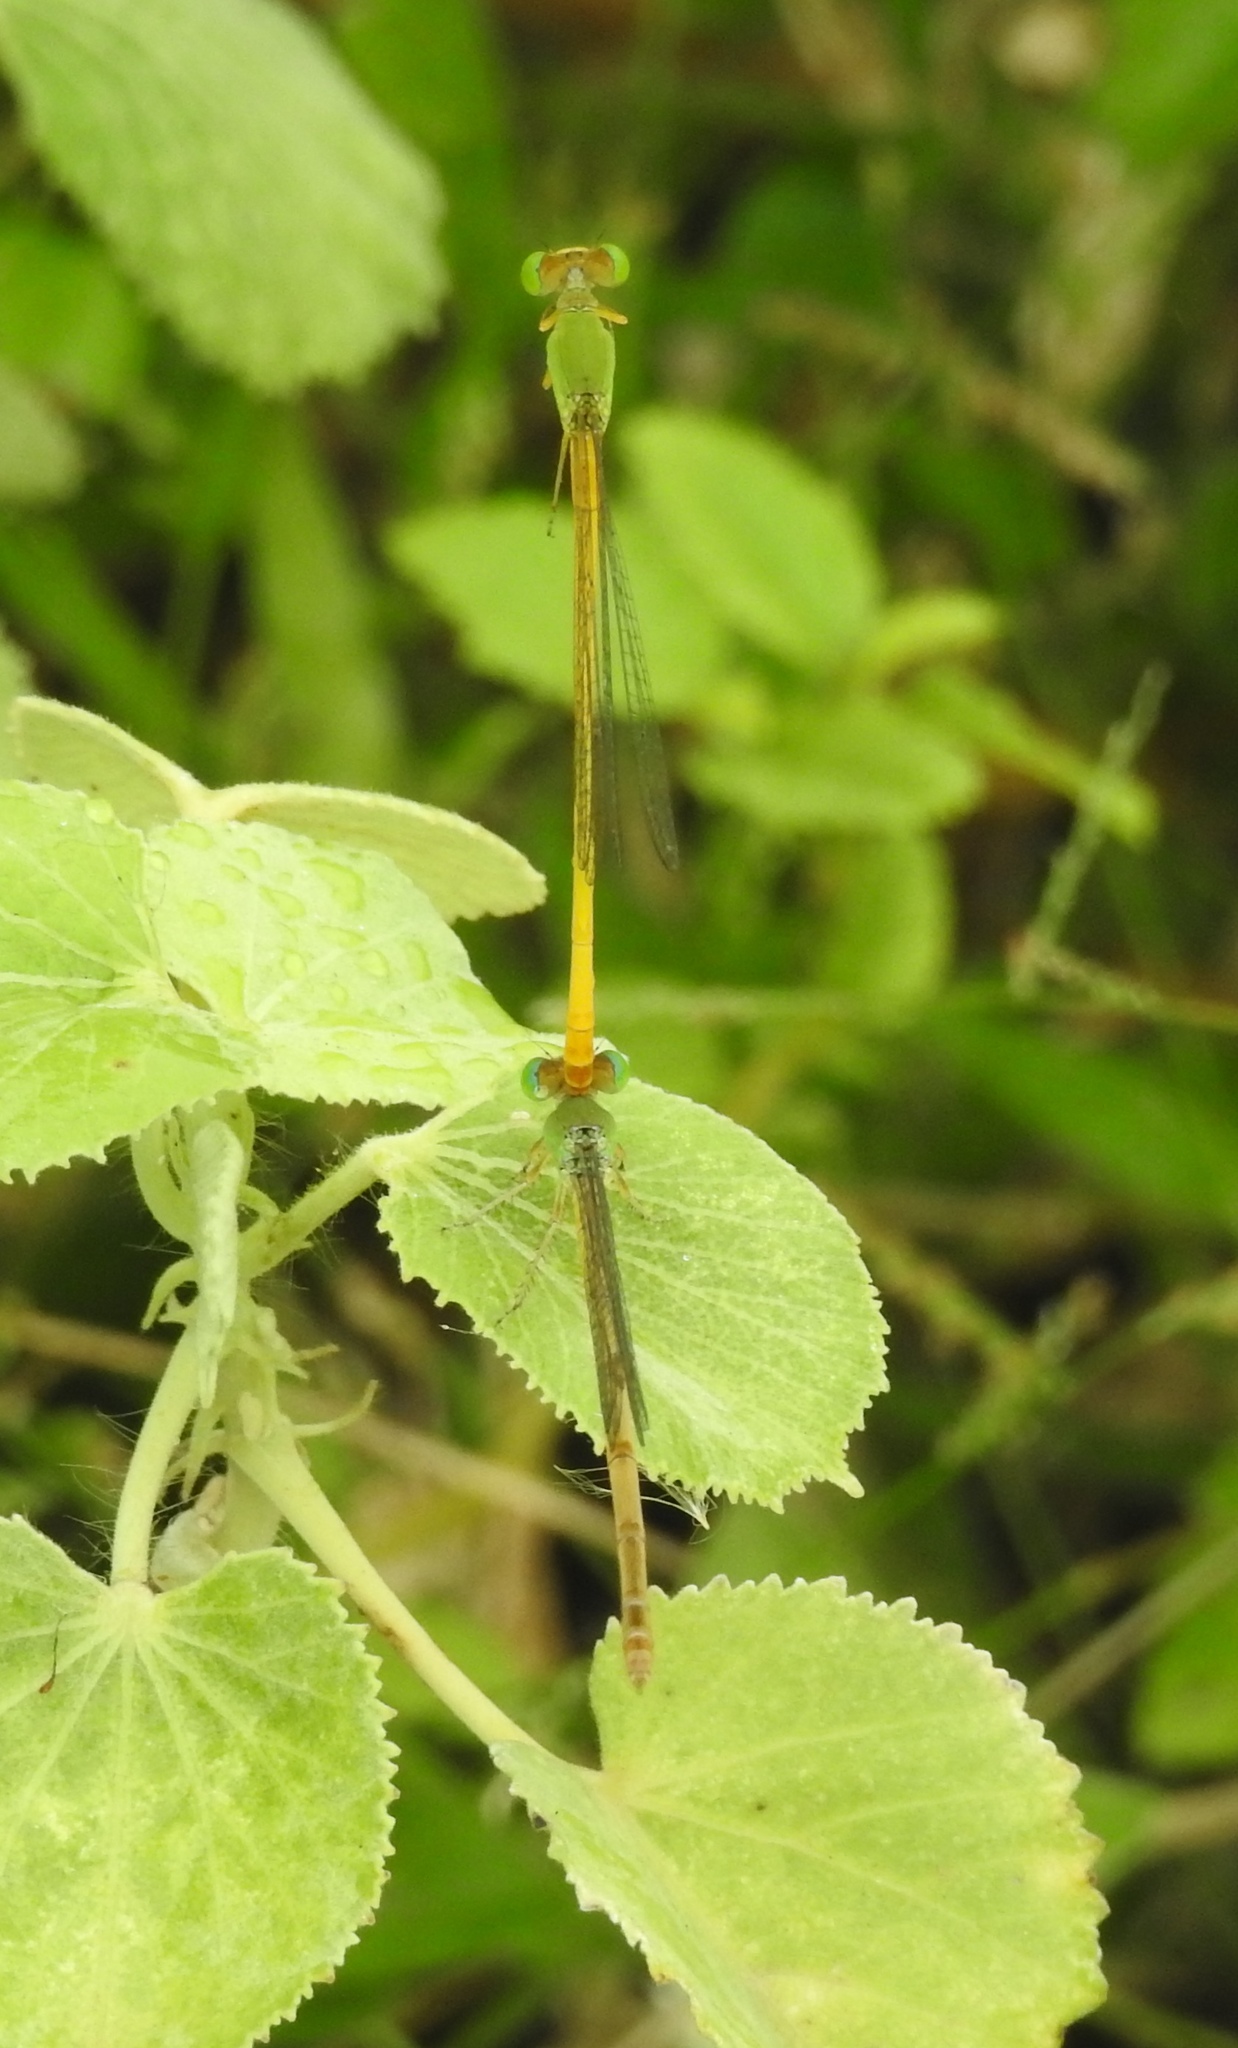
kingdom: Animalia
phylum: Arthropoda
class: Insecta
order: Odonata
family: Coenagrionidae
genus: Ceriagrion
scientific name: Ceriagrion coromandelianum
